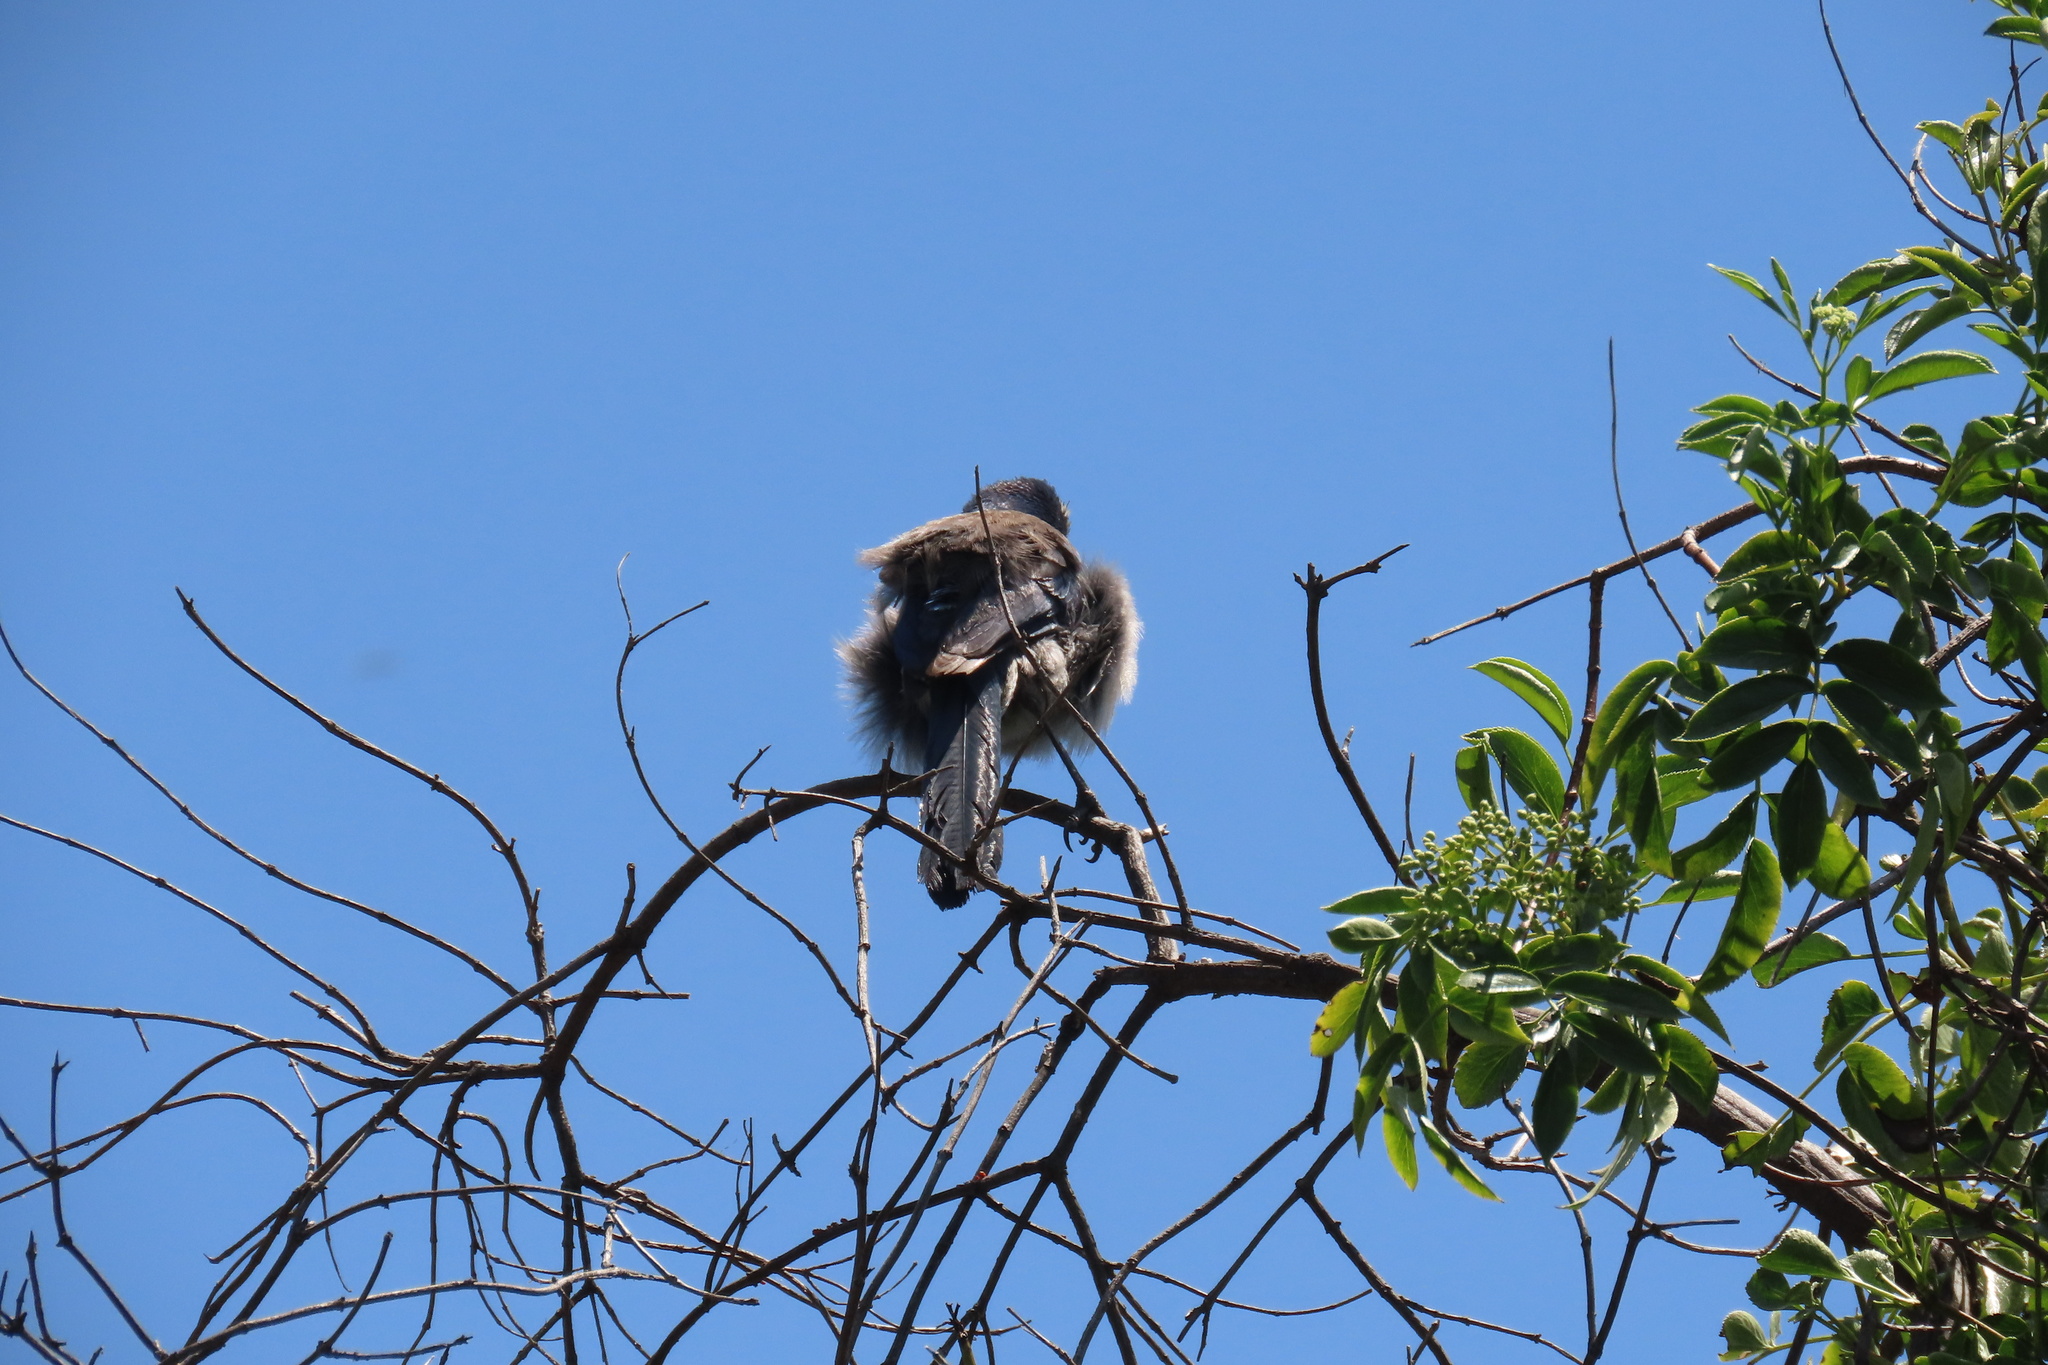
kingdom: Animalia
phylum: Chordata
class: Aves
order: Passeriformes
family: Corvidae
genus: Aphelocoma
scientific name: Aphelocoma californica
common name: California scrub-jay
